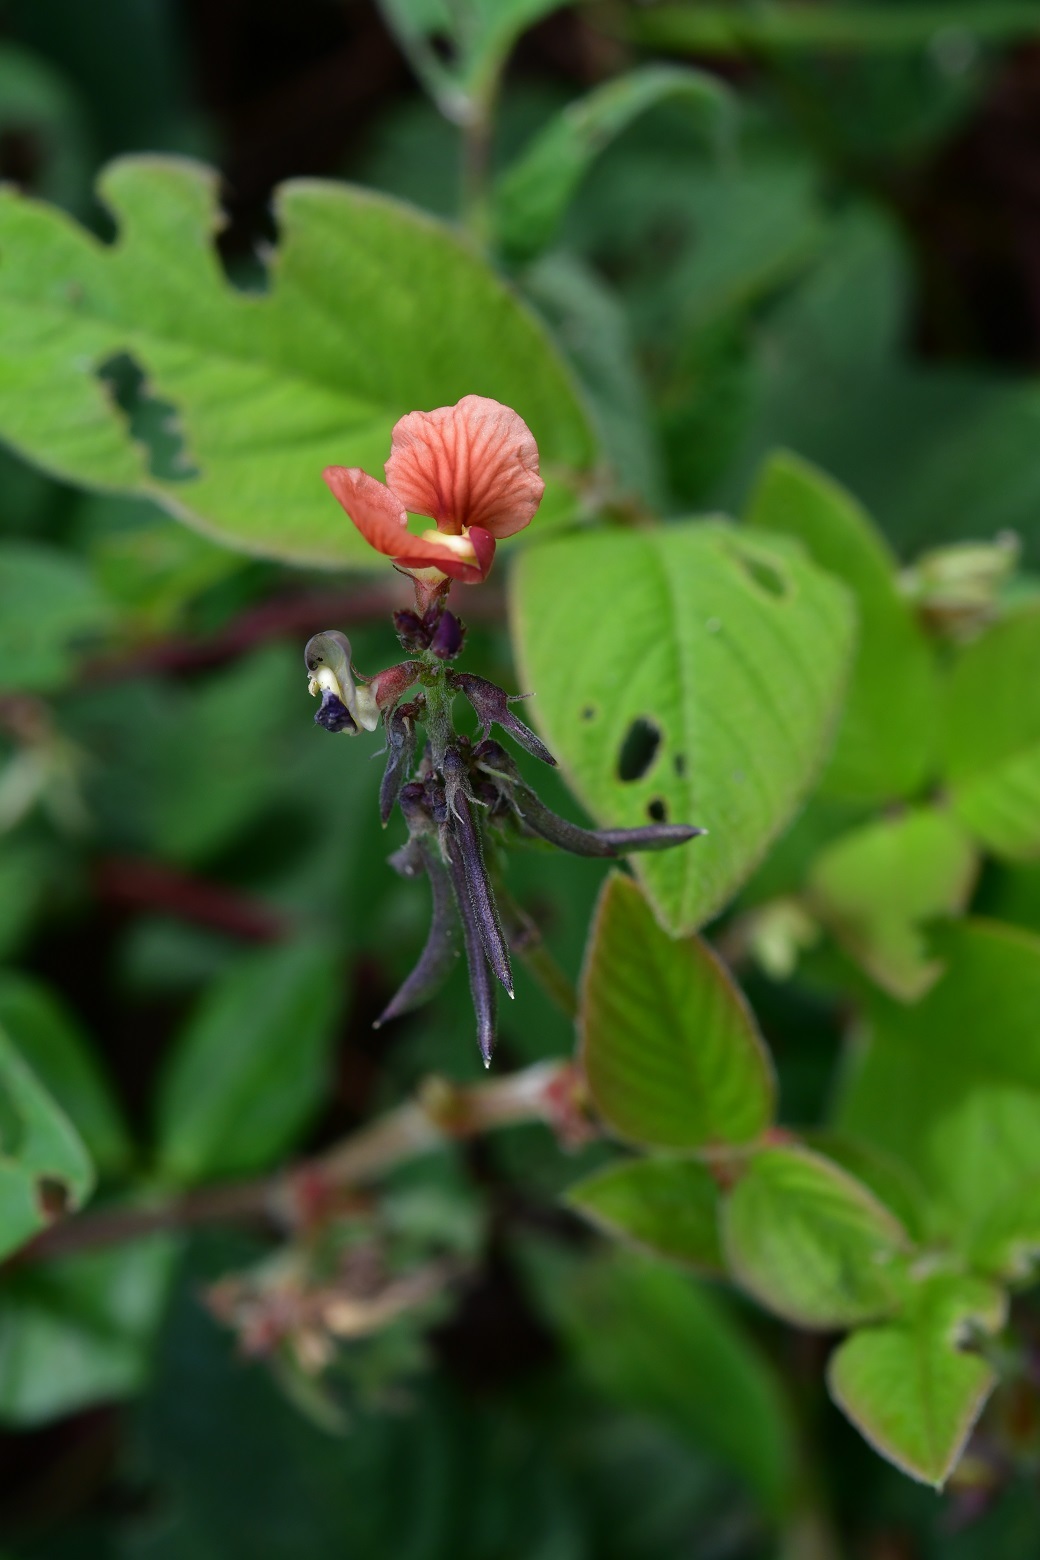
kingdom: Plantae
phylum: Tracheophyta
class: Magnoliopsida
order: Fabales
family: Fabaceae
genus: Macroptilium
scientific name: Macroptilium gibbosifolium
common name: Variableleaf bushbean
